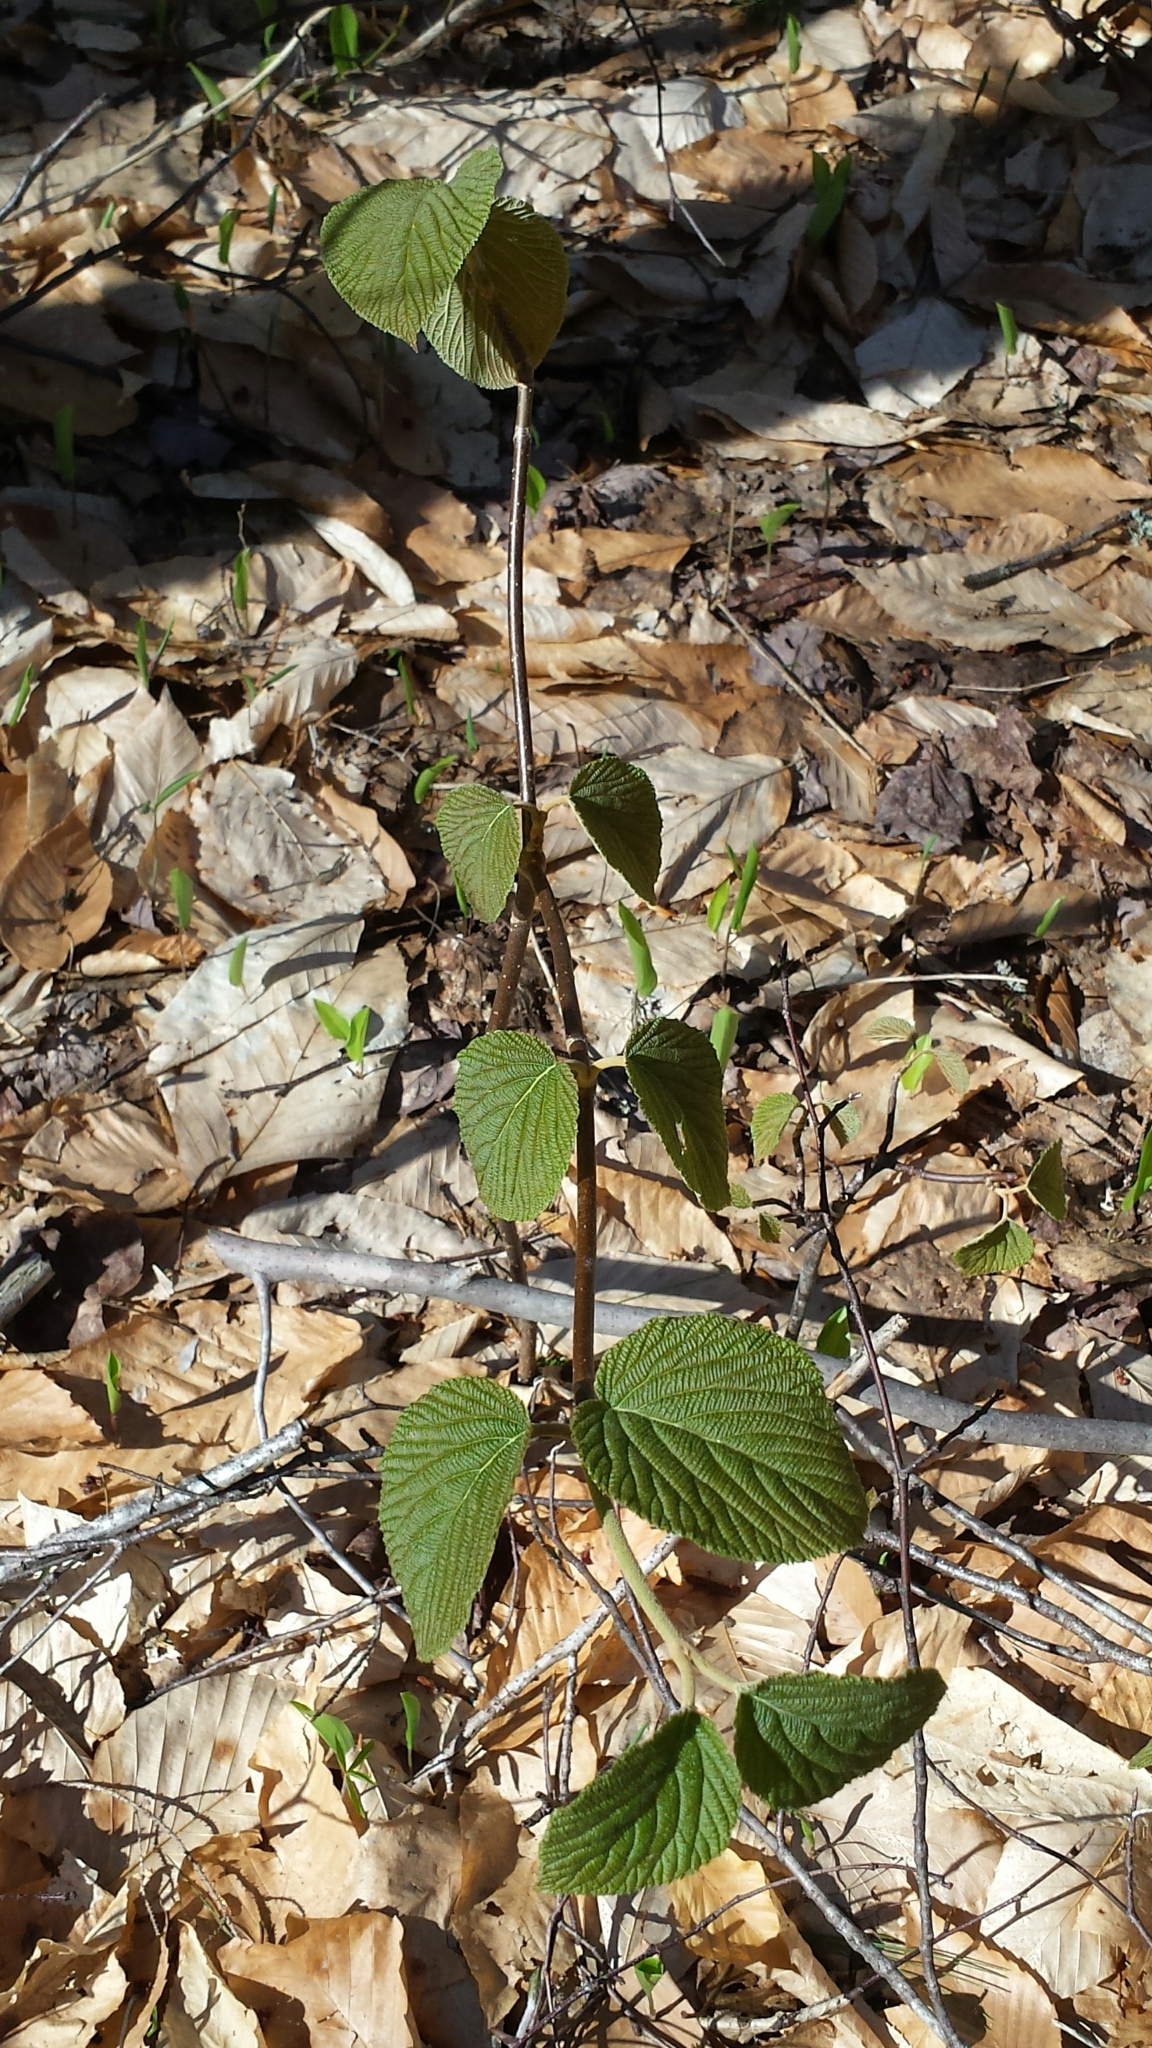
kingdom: Plantae
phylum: Tracheophyta
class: Magnoliopsida
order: Dipsacales
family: Viburnaceae
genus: Viburnum
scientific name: Viburnum lantanoides
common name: Hobblebush
